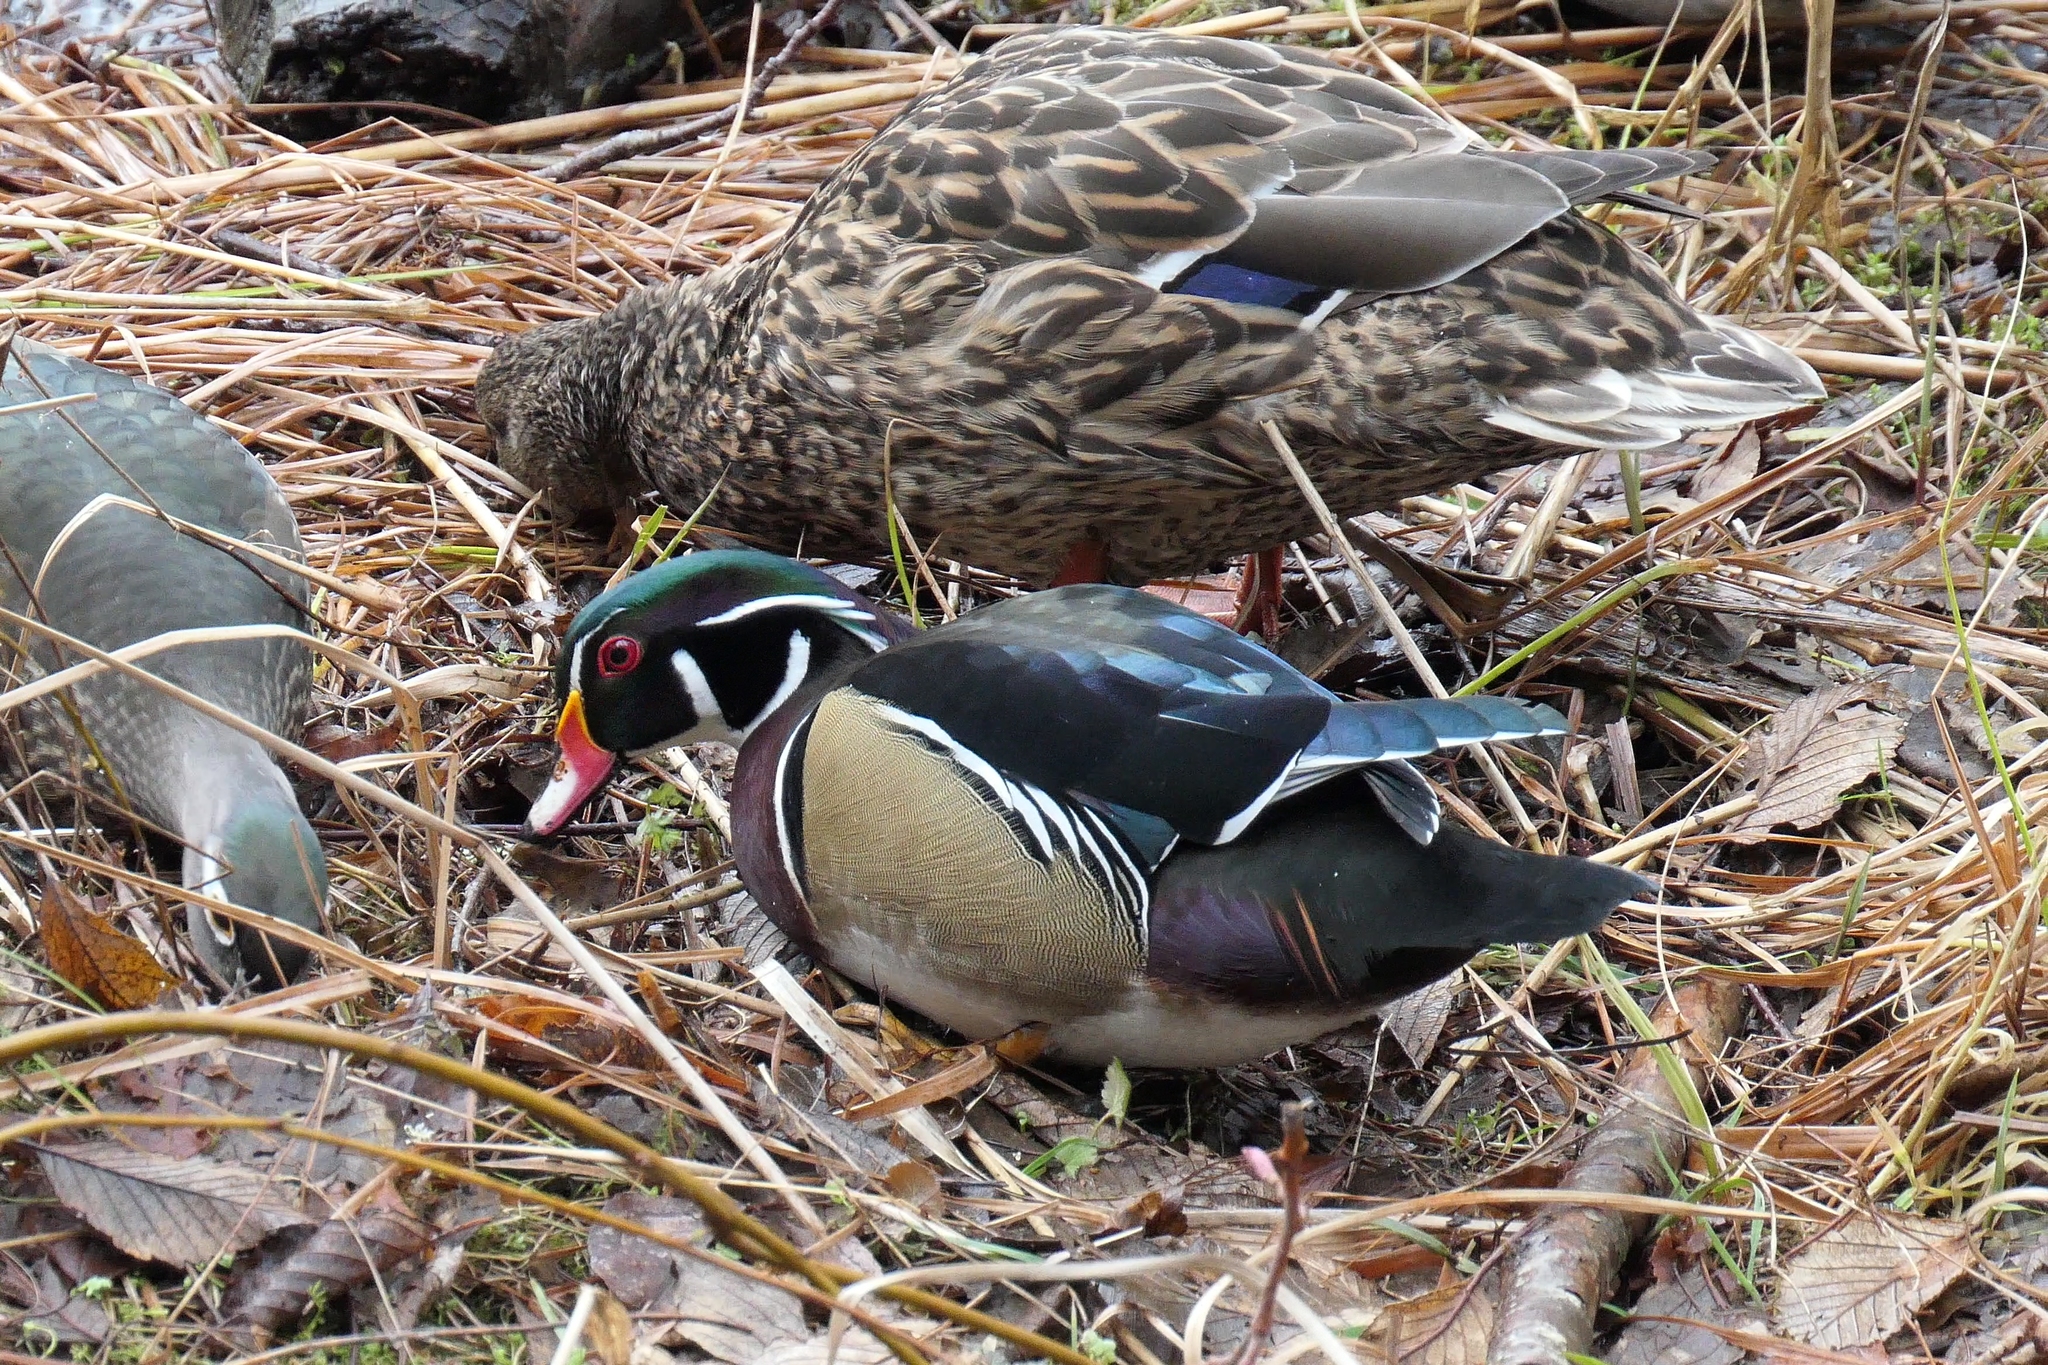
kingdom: Animalia
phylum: Chordata
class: Aves
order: Anseriformes
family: Anatidae
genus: Aix
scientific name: Aix sponsa
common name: Wood duck
